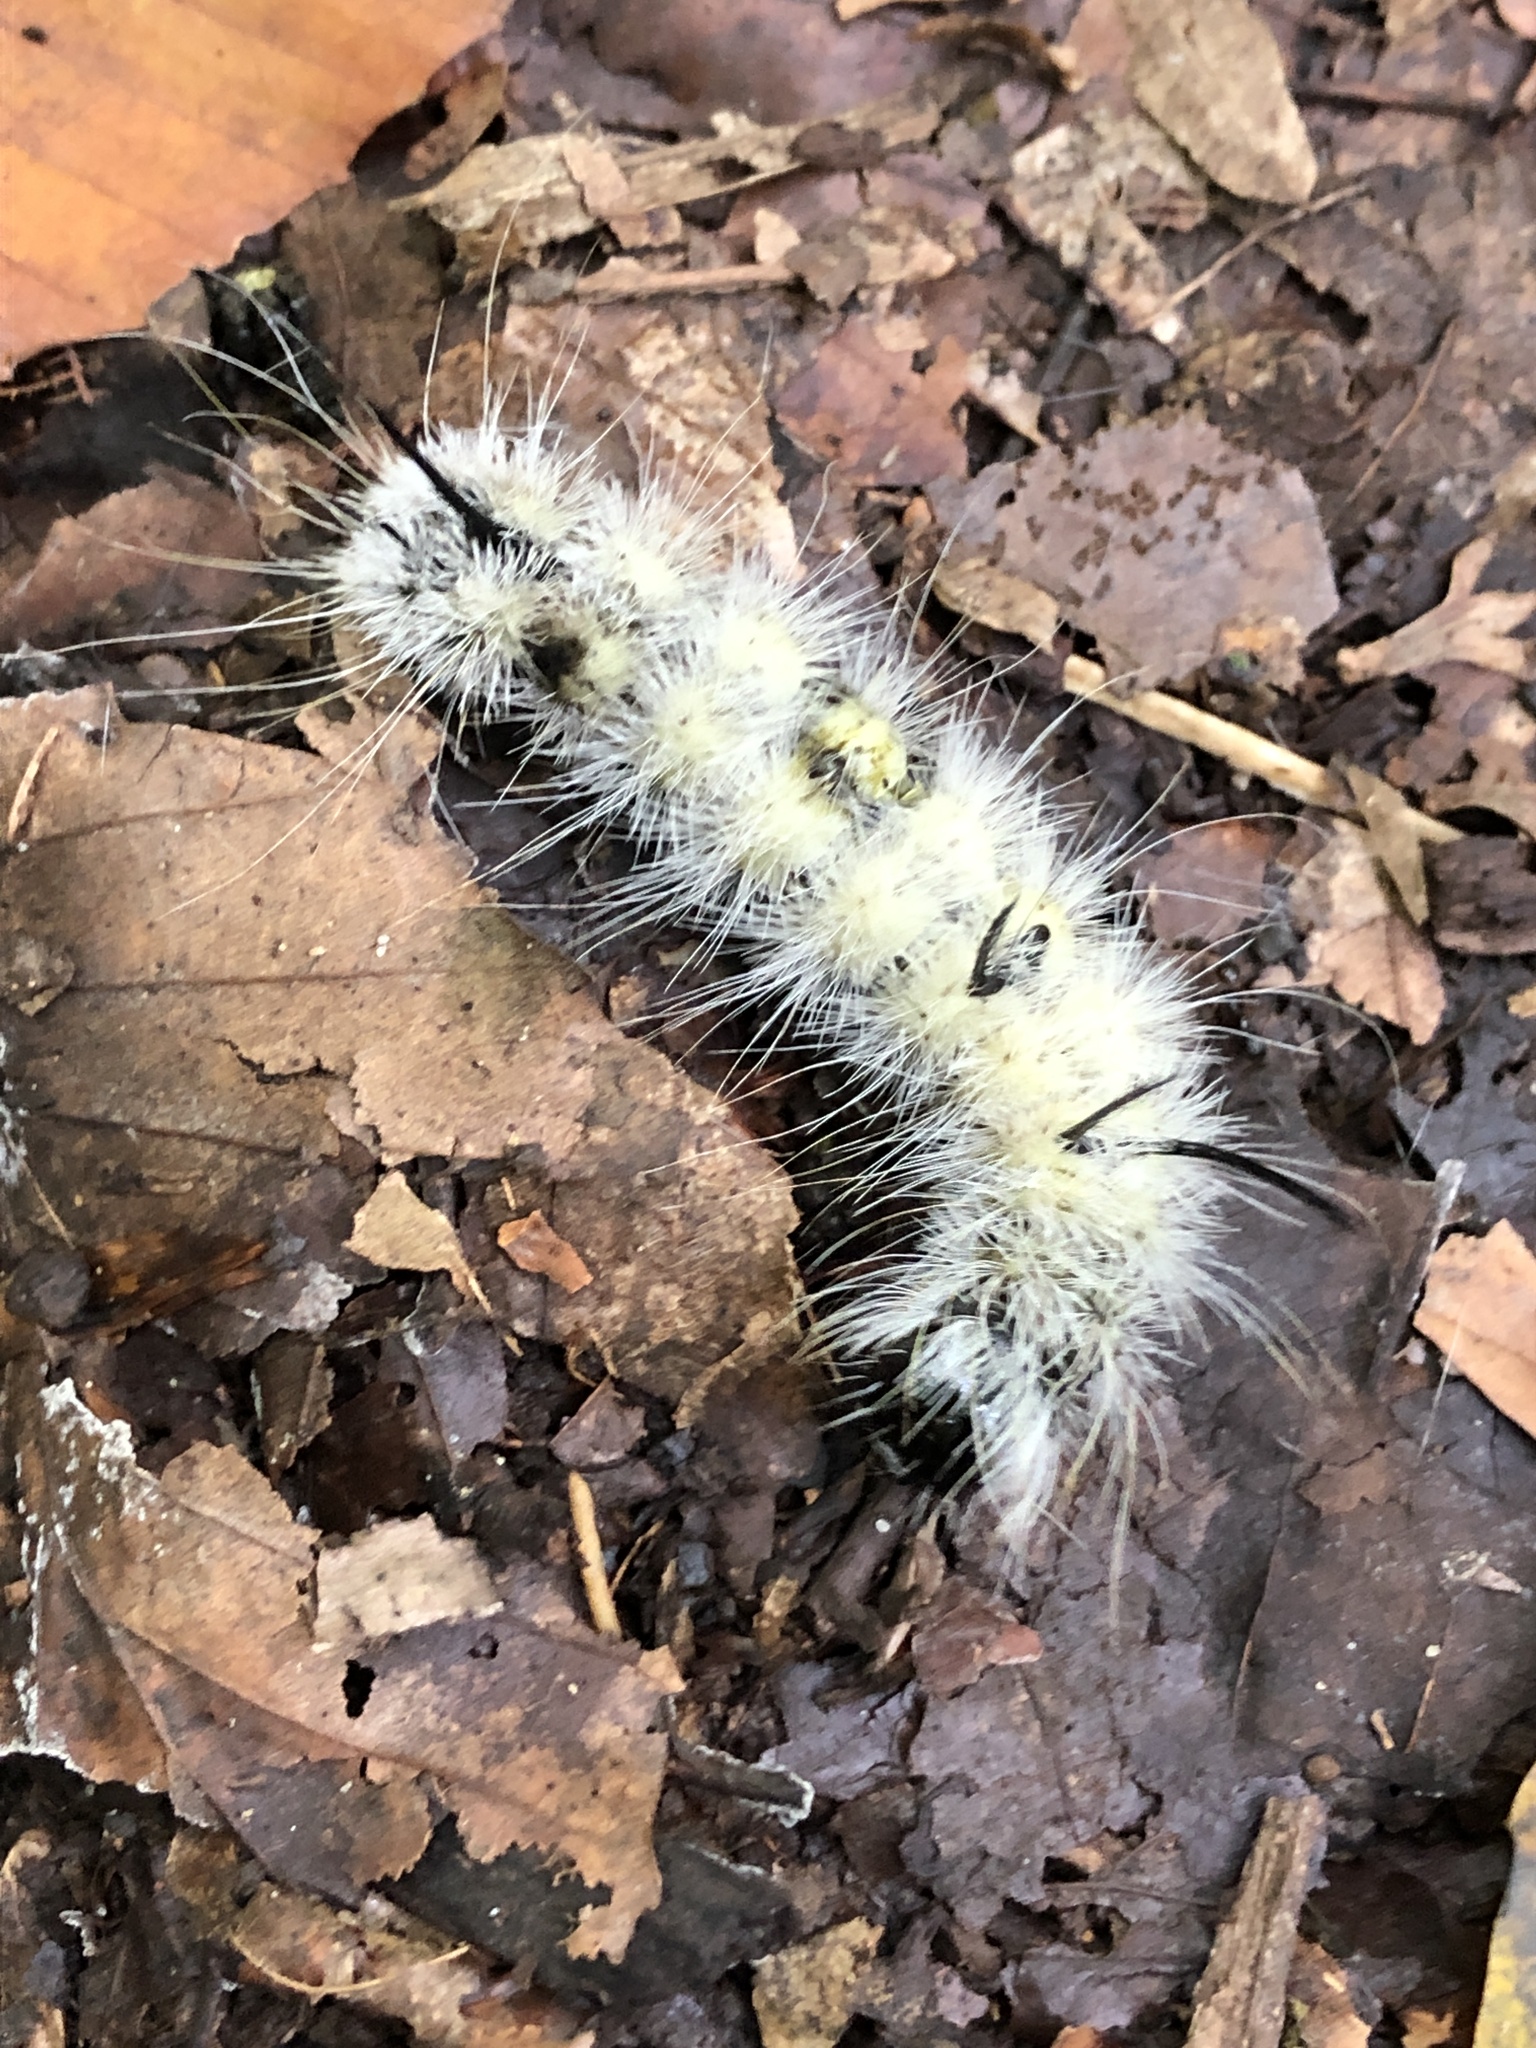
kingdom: Animalia
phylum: Arthropoda
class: Insecta
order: Lepidoptera
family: Noctuidae
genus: Acronicta
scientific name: Acronicta americana
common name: American dagger
